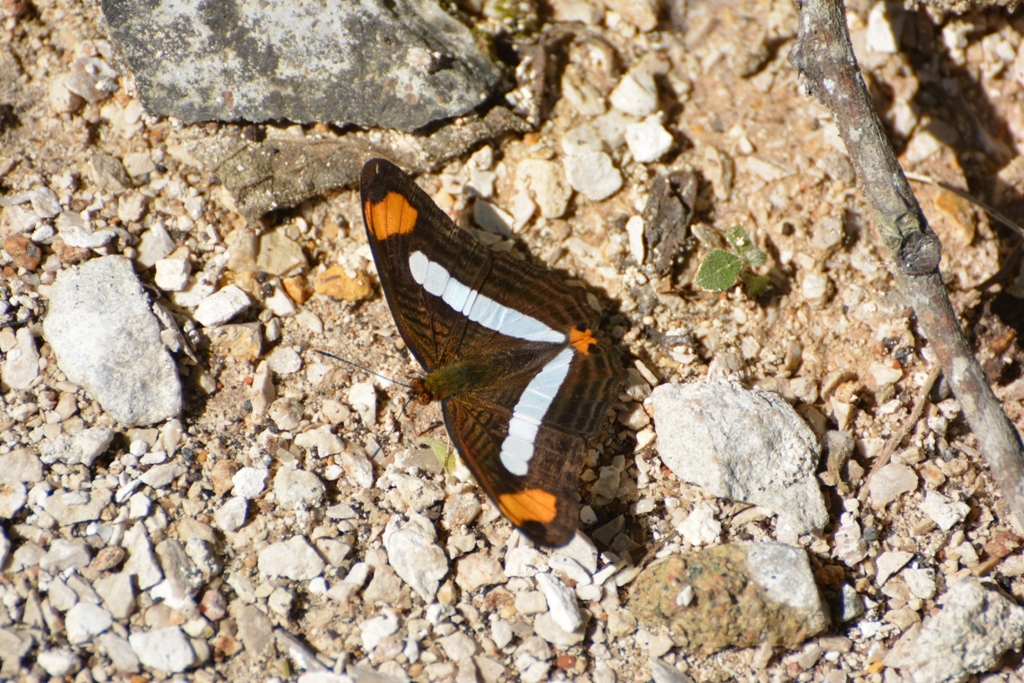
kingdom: Animalia
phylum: Arthropoda
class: Insecta
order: Lepidoptera
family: Nymphalidae
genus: Limenitis
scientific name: Limenitis iphiclus
